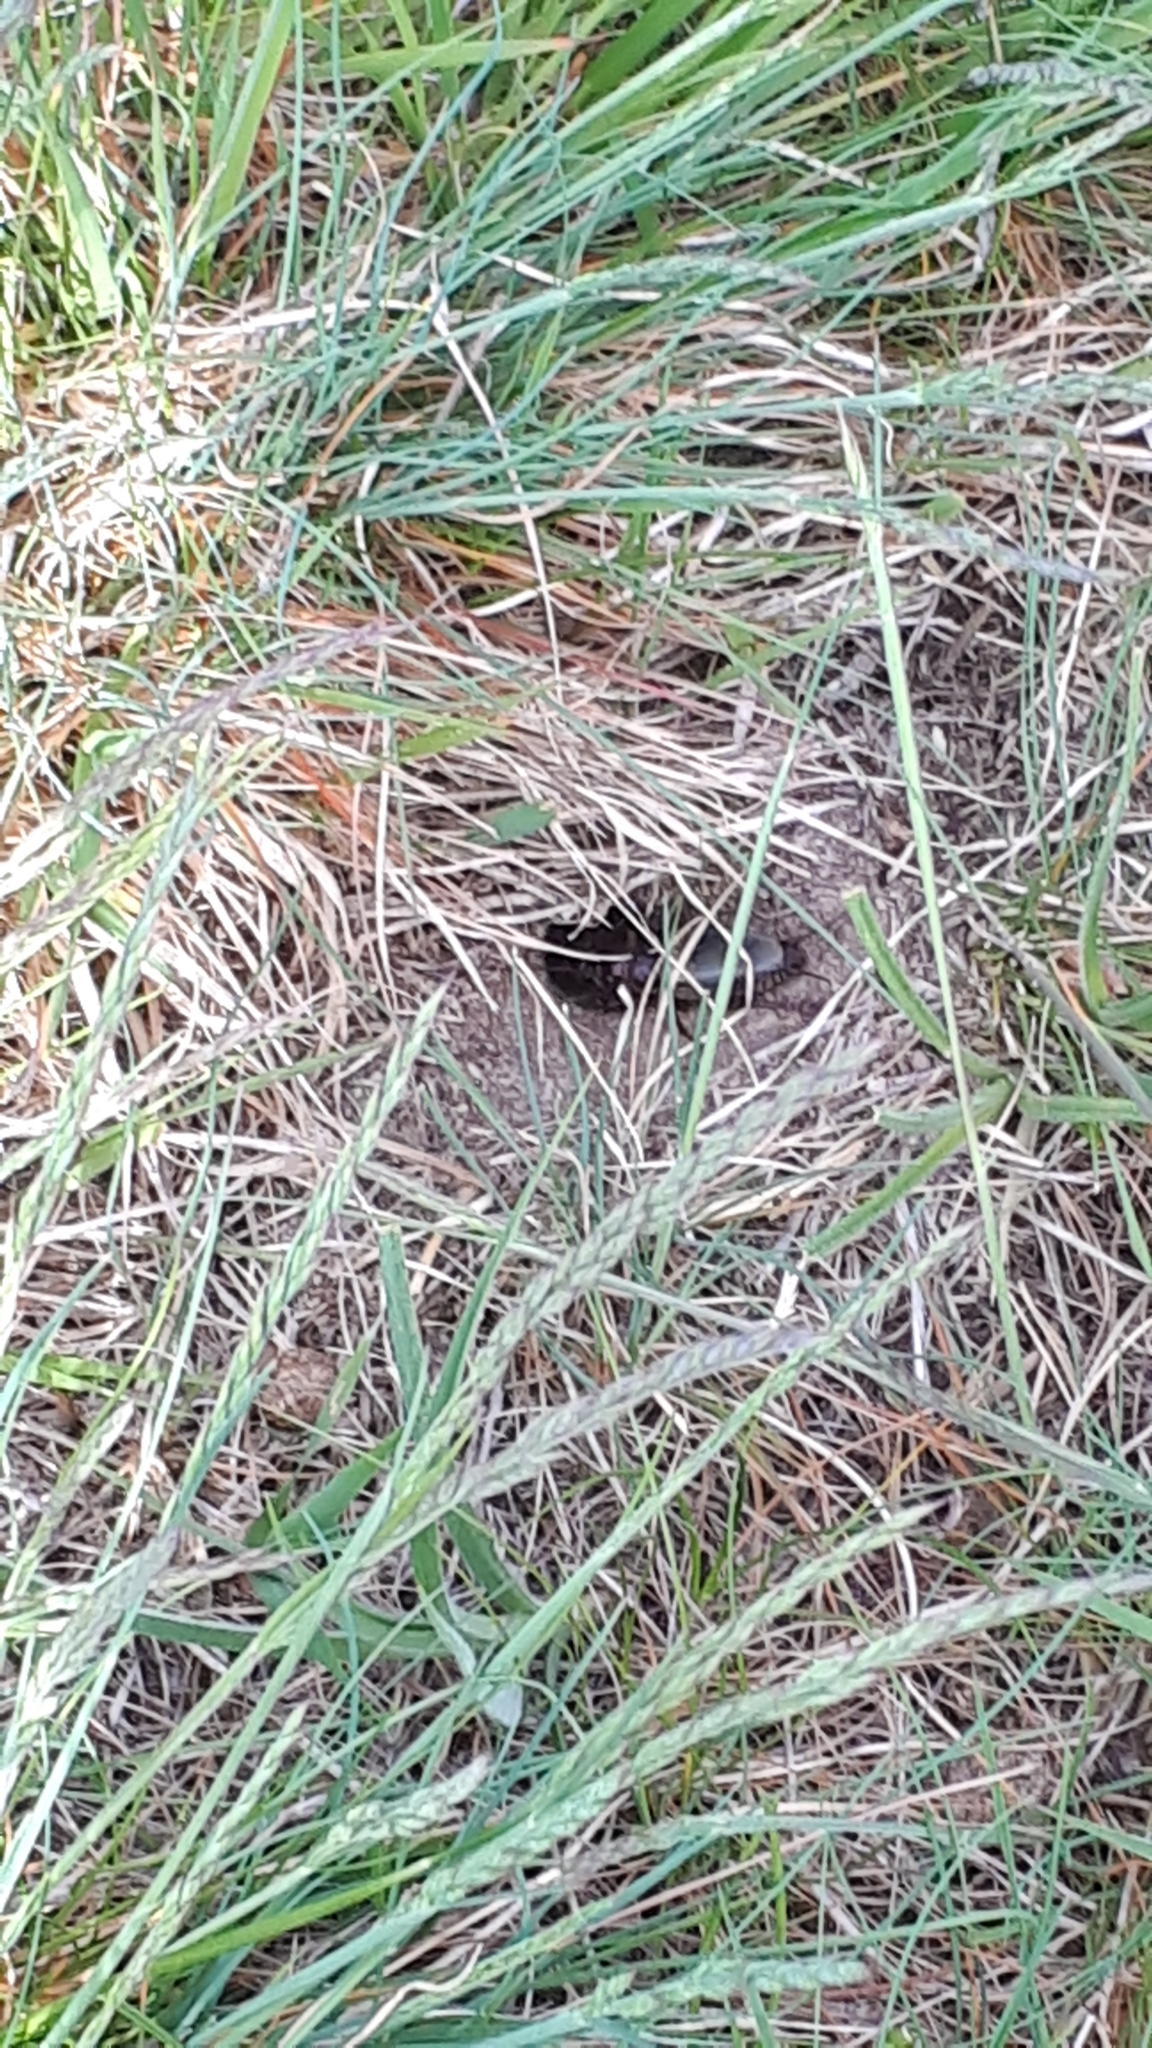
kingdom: Animalia
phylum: Arthropoda
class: Insecta
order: Orthoptera
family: Gryllidae
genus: Gryllus
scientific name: Gryllus campestris
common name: Field cricket
